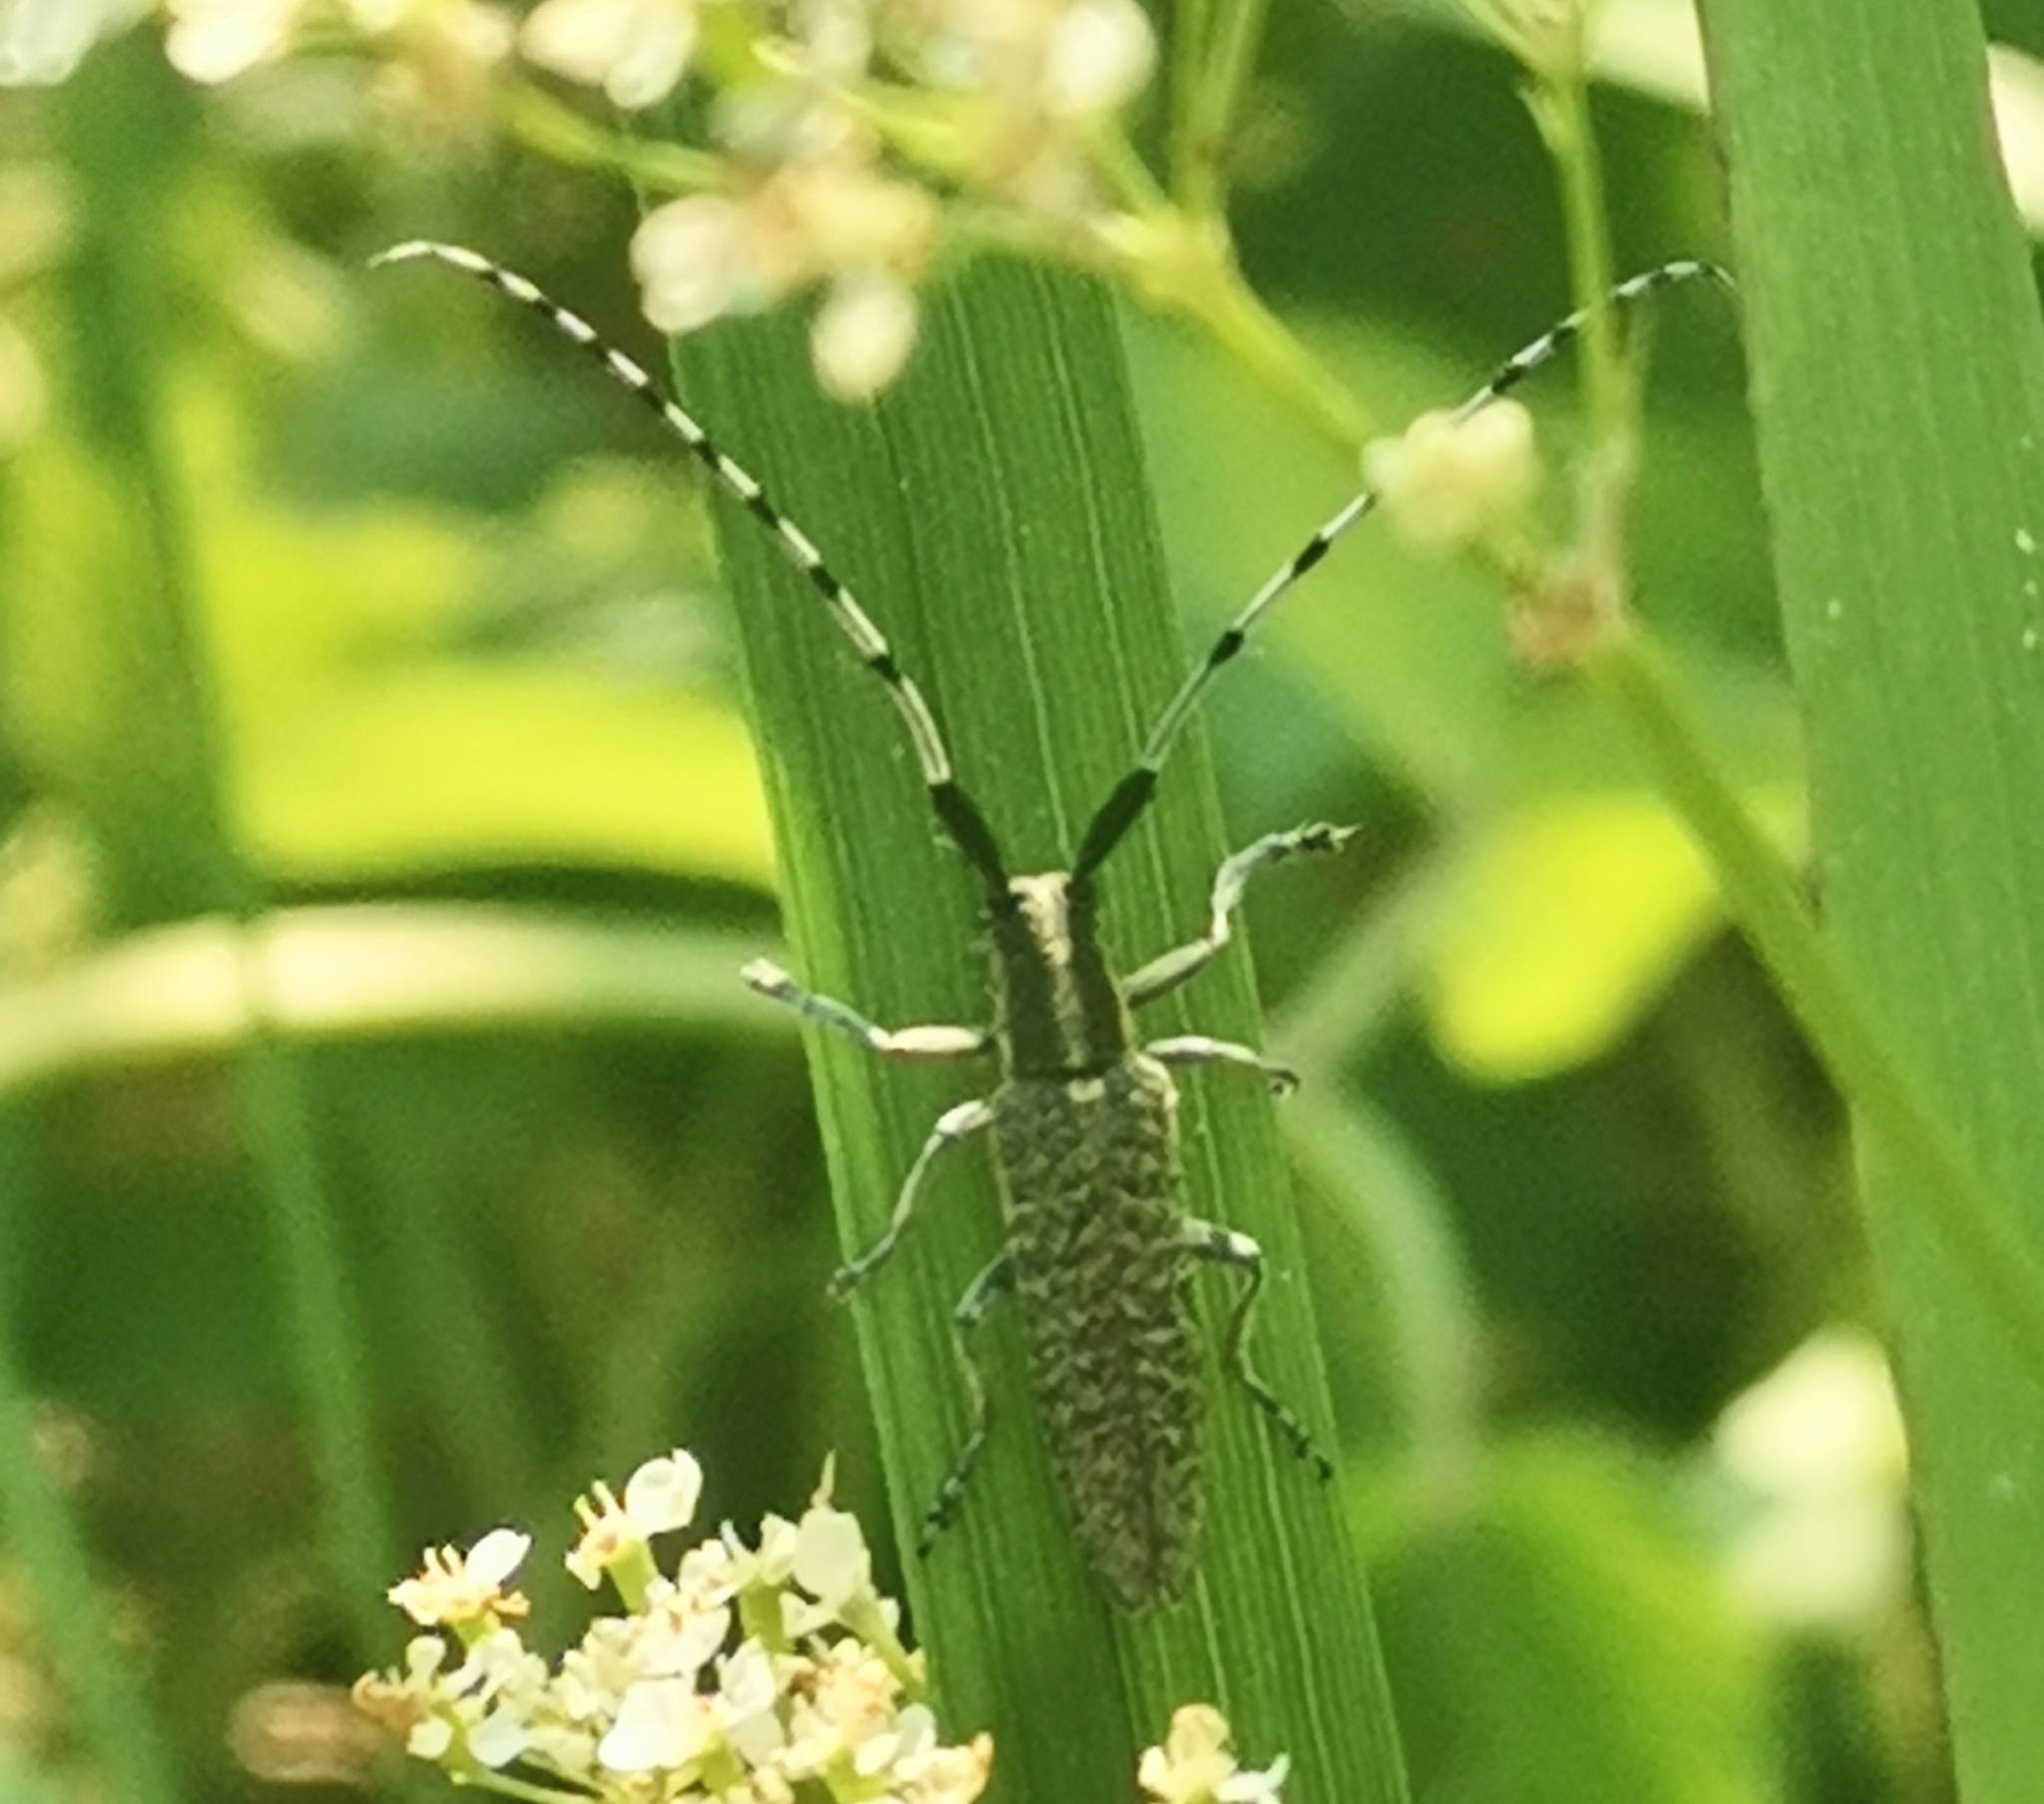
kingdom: Animalia
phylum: Arthropoda
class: Insecta
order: Coleoptera
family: Cerambycidae
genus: Agapanthia
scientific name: Agapanthia villosoviridescens
